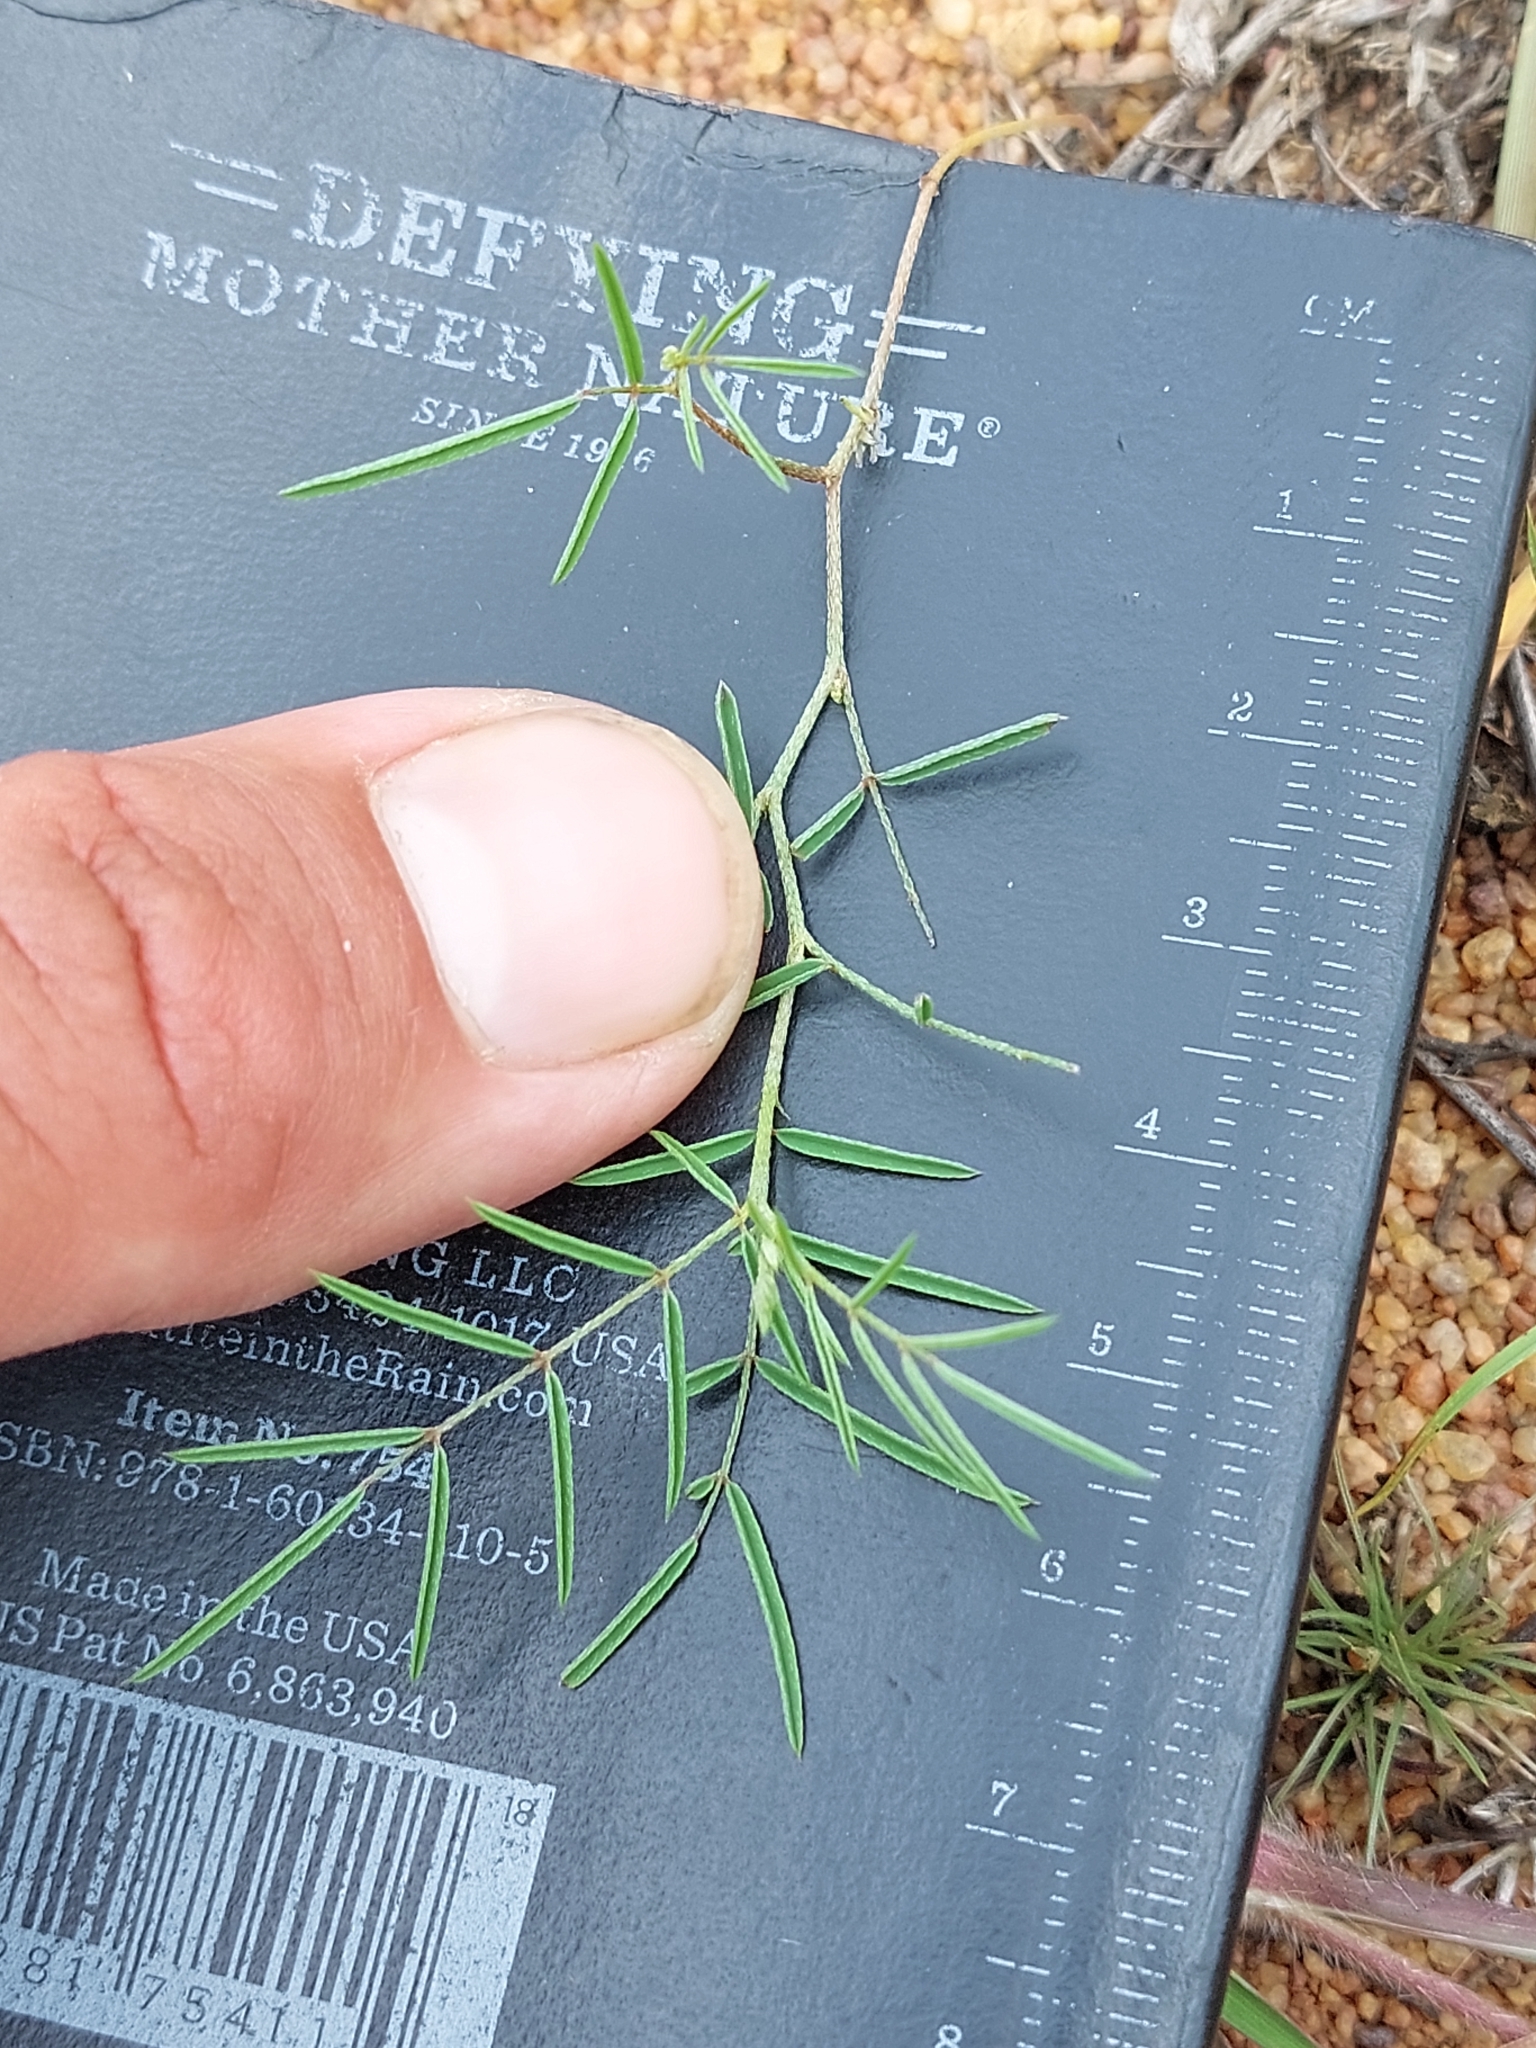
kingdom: Plantae
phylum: Tracheophyta
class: Magnoliopsida
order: Fabales
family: Fabaceae
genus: Indigofera
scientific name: Indigofera filipes
